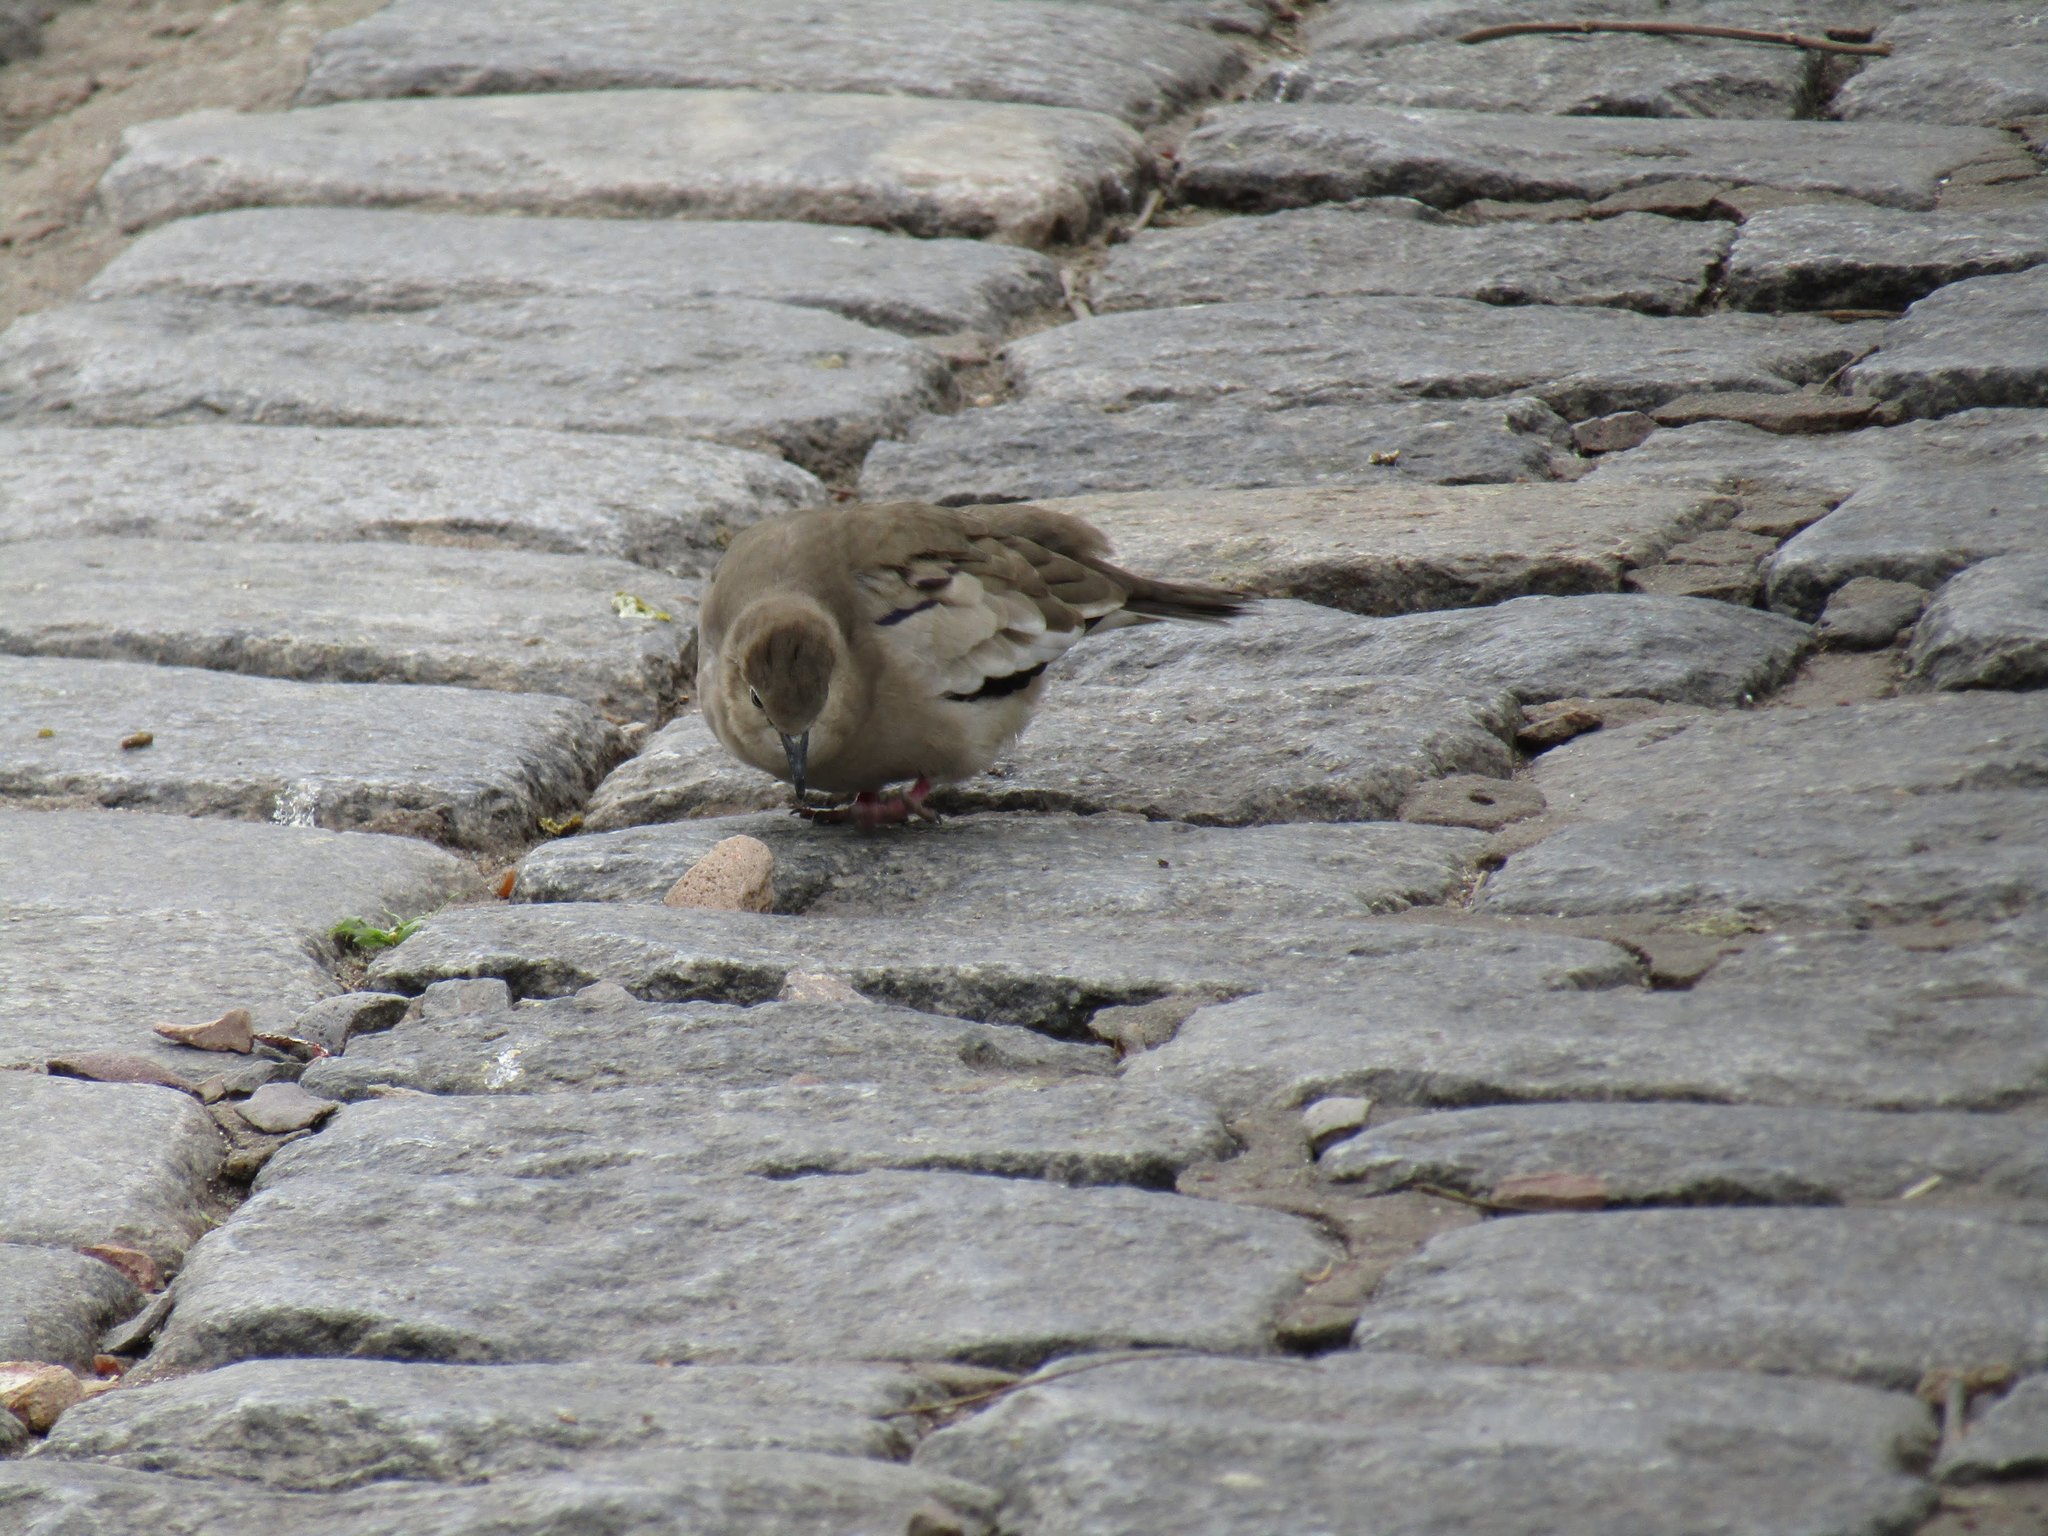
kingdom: Animalia
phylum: Chordata
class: Aves
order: Columbiformes
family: Columbidae
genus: Columbina
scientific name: Columbina picui
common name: Picui ground dove
